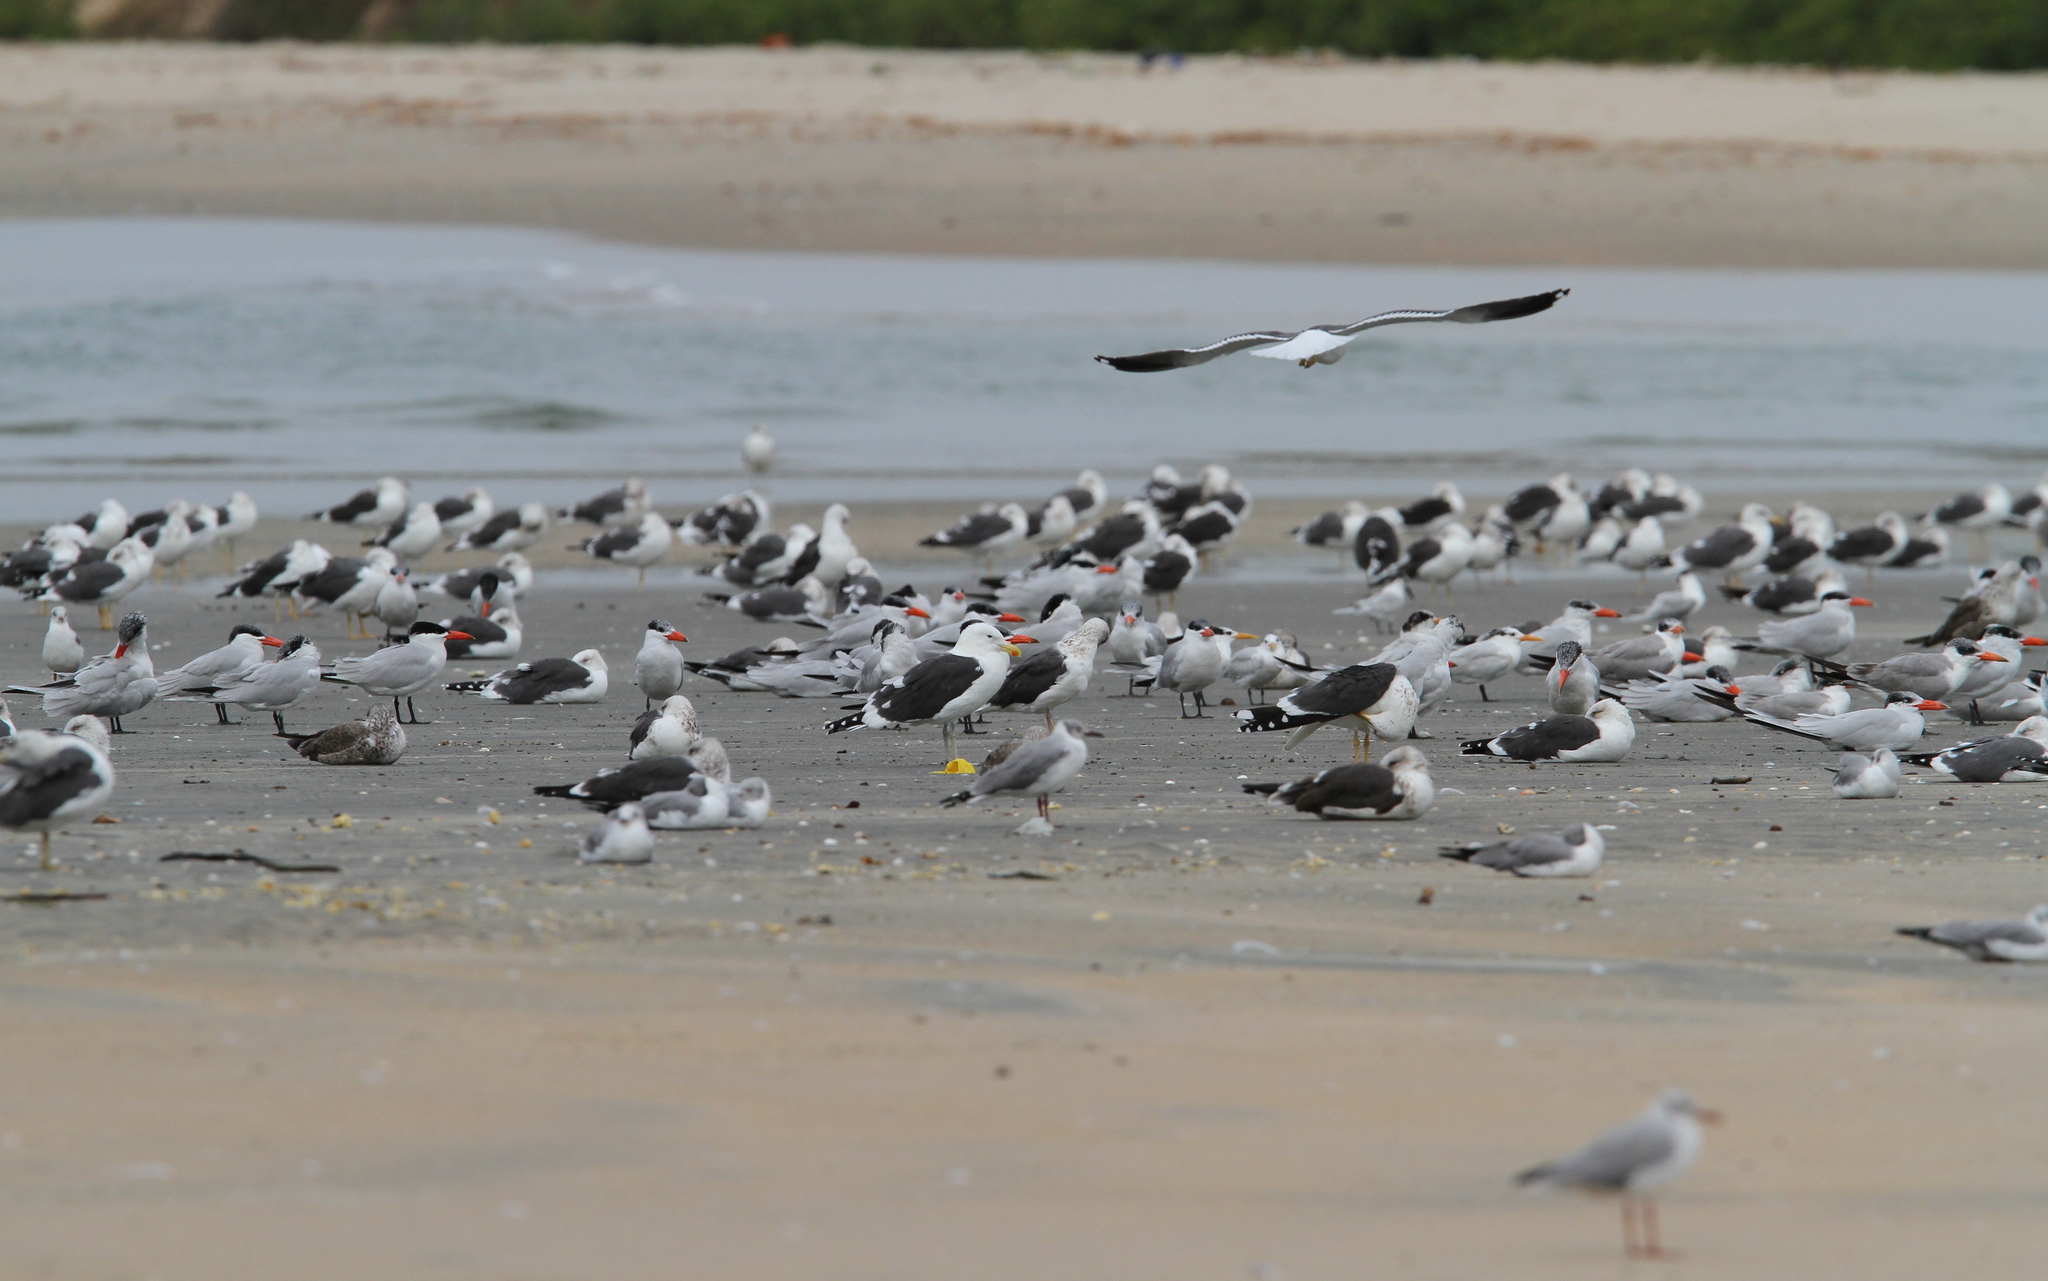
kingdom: Animalia
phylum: Chordata
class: Aves
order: Charadriiformes
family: Laridae
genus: Larus
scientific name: Larus dominicanus
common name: Kelp gull
